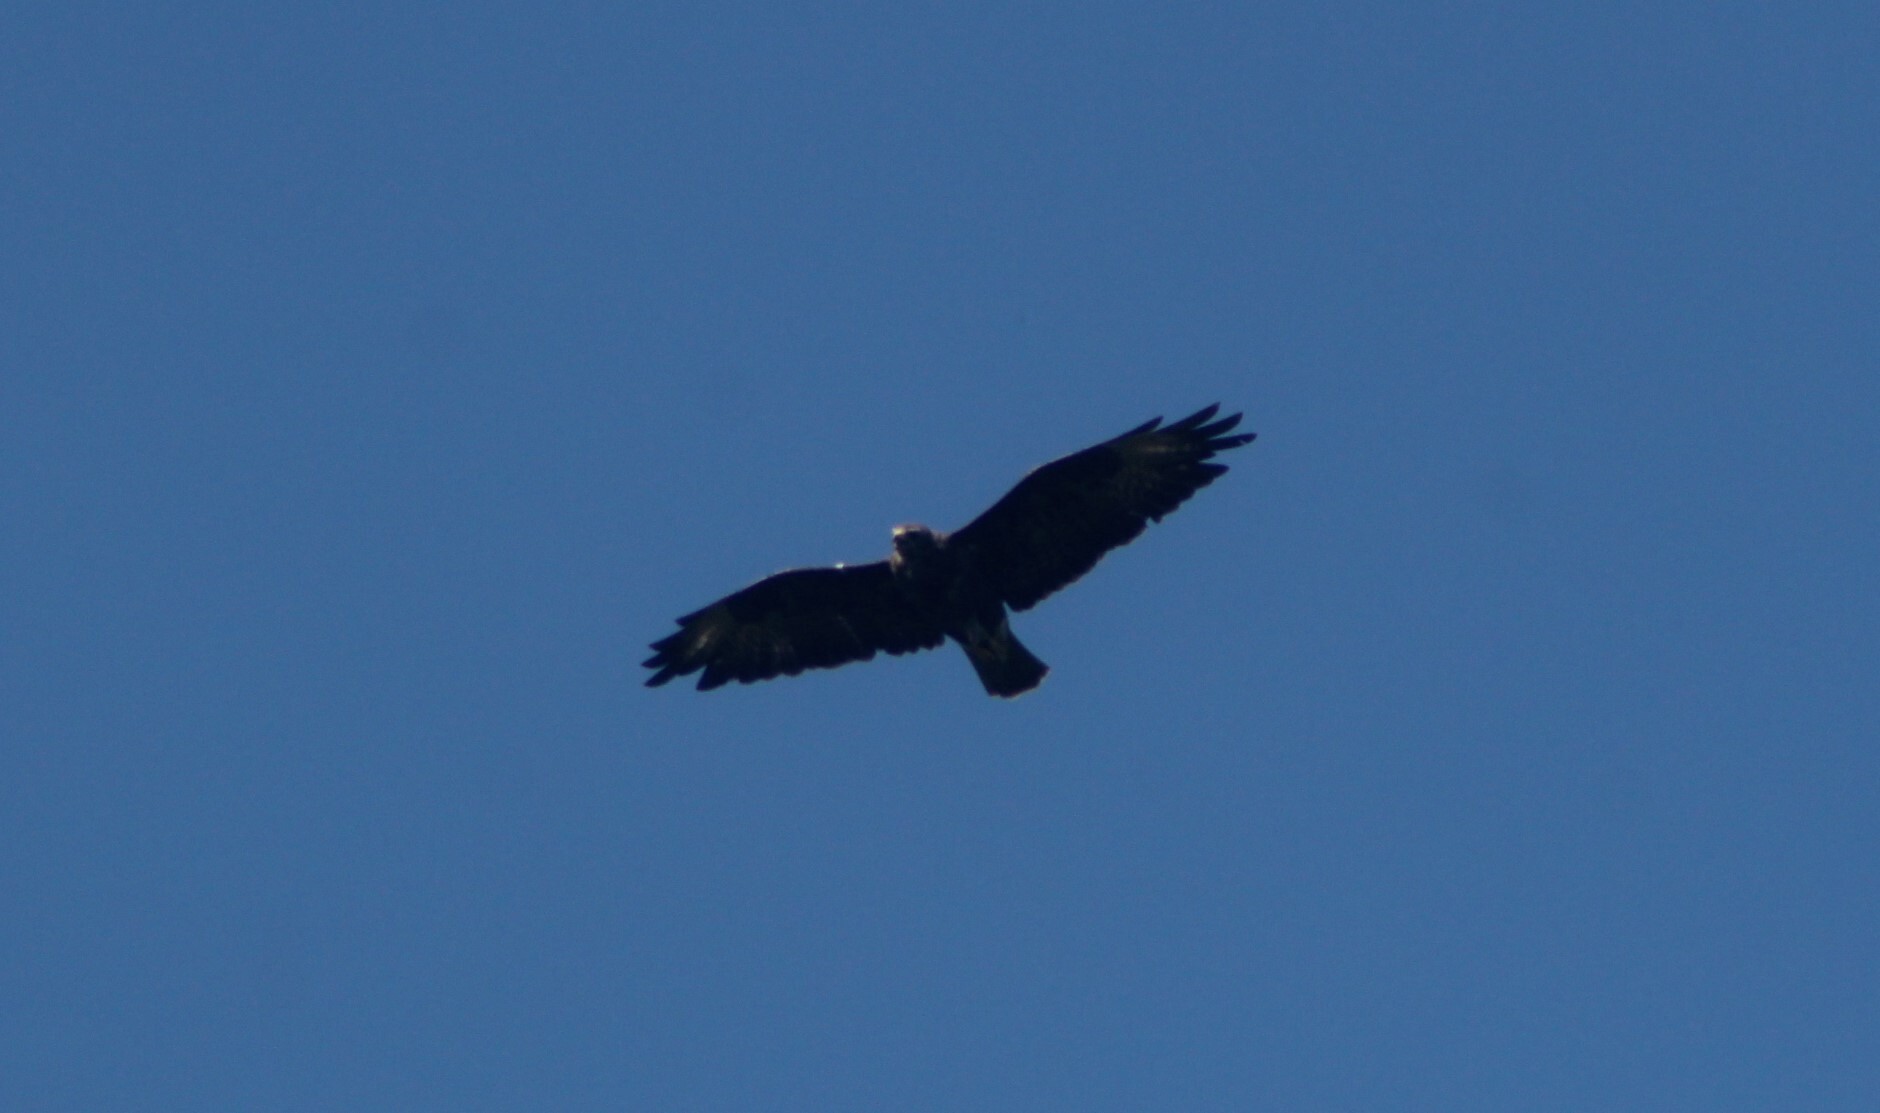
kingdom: Animalia
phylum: Chordata
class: Aves
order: Accipitriformes
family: Accipitridae
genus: Buteo
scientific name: Buteo buteo
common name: Common buzzard
